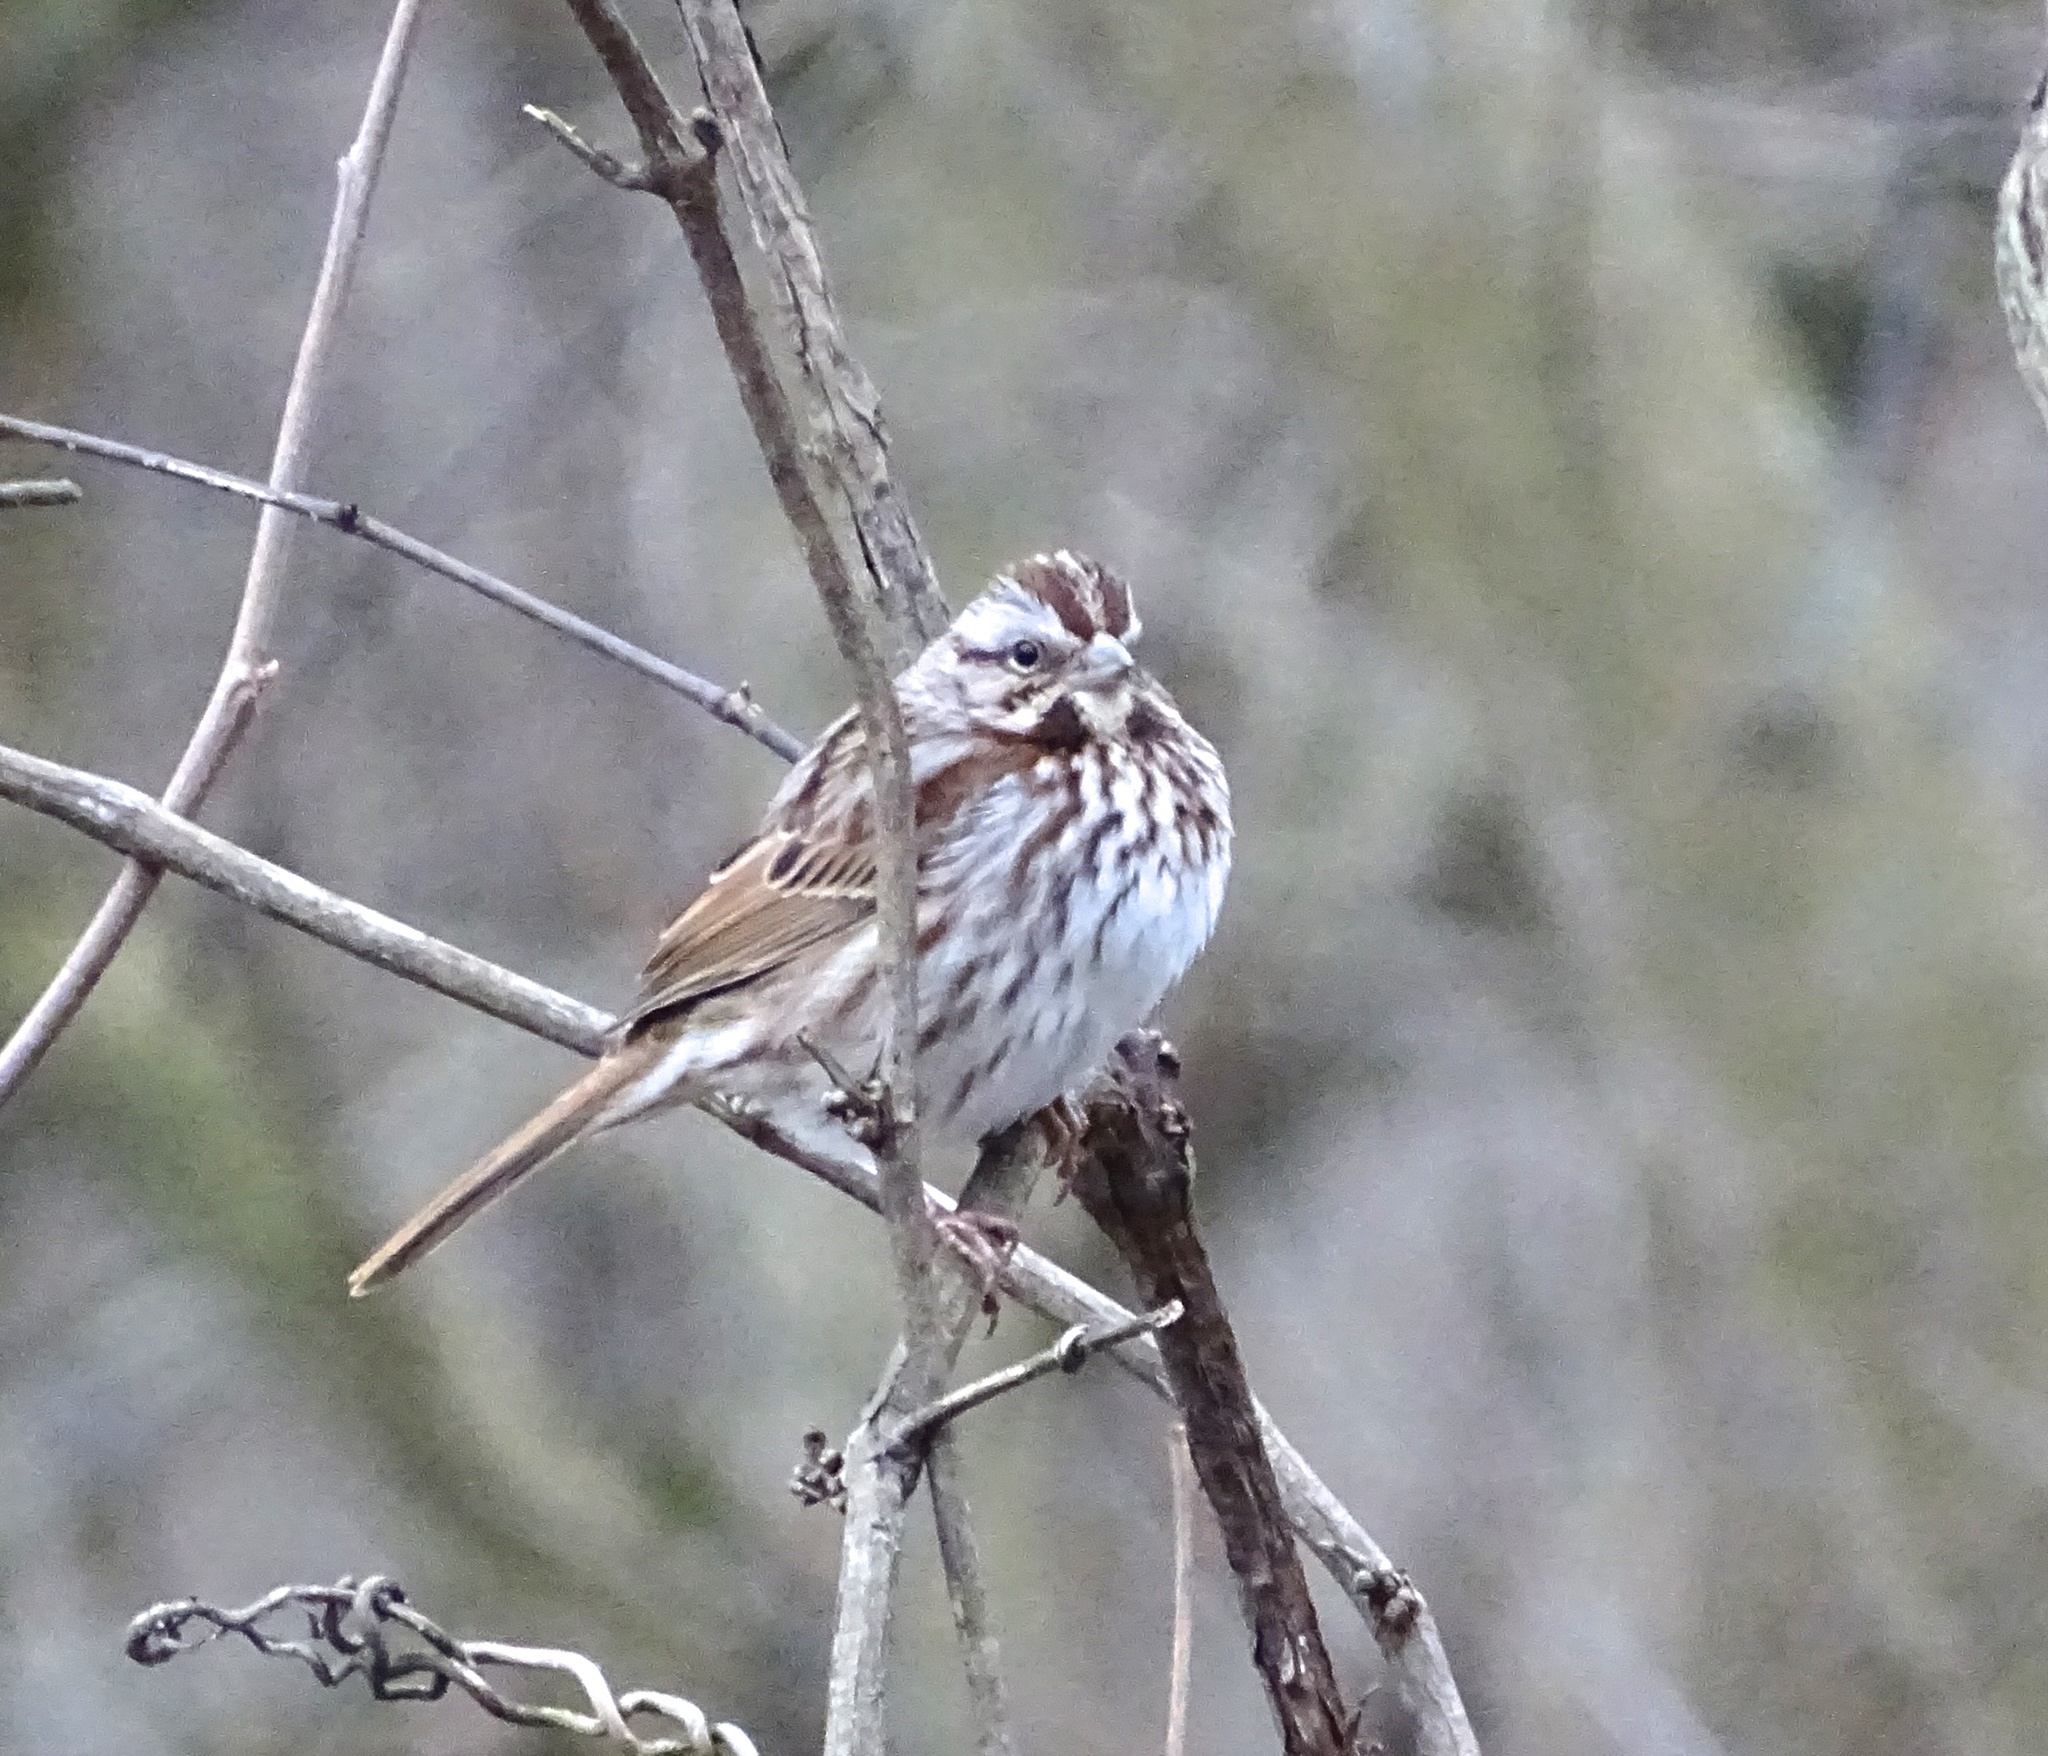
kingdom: Animalia
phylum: Chordata
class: Aves
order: Passeriformes
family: Passerellidae
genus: Melospiza
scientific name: Melospiza melodia
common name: Song sparrow
